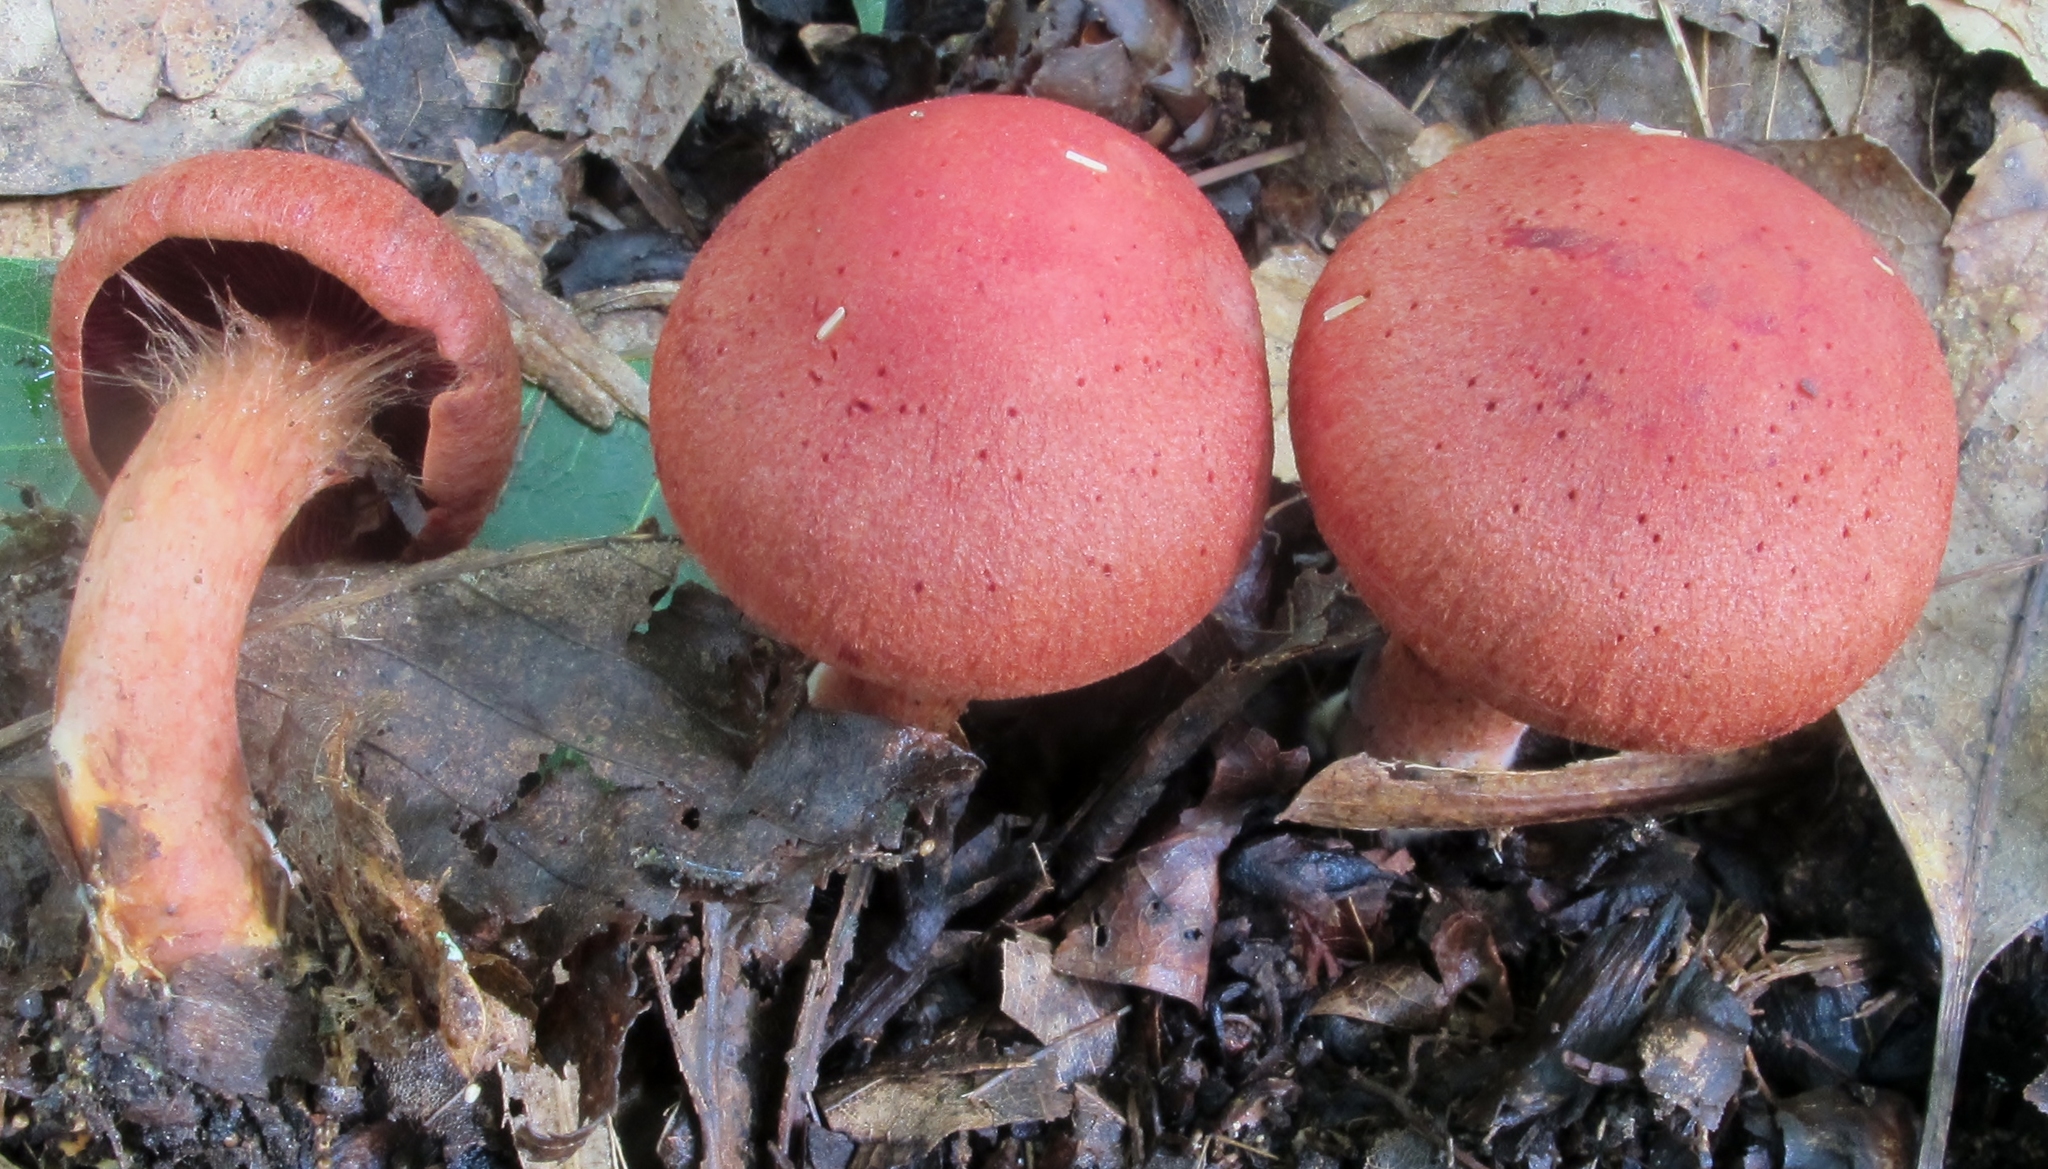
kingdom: Fungi
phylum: Basidiomycota
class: Agaricomycetes
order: Agaricales
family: Cortinariaceae
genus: Cortinarius
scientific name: Cortinarius harrisonii
